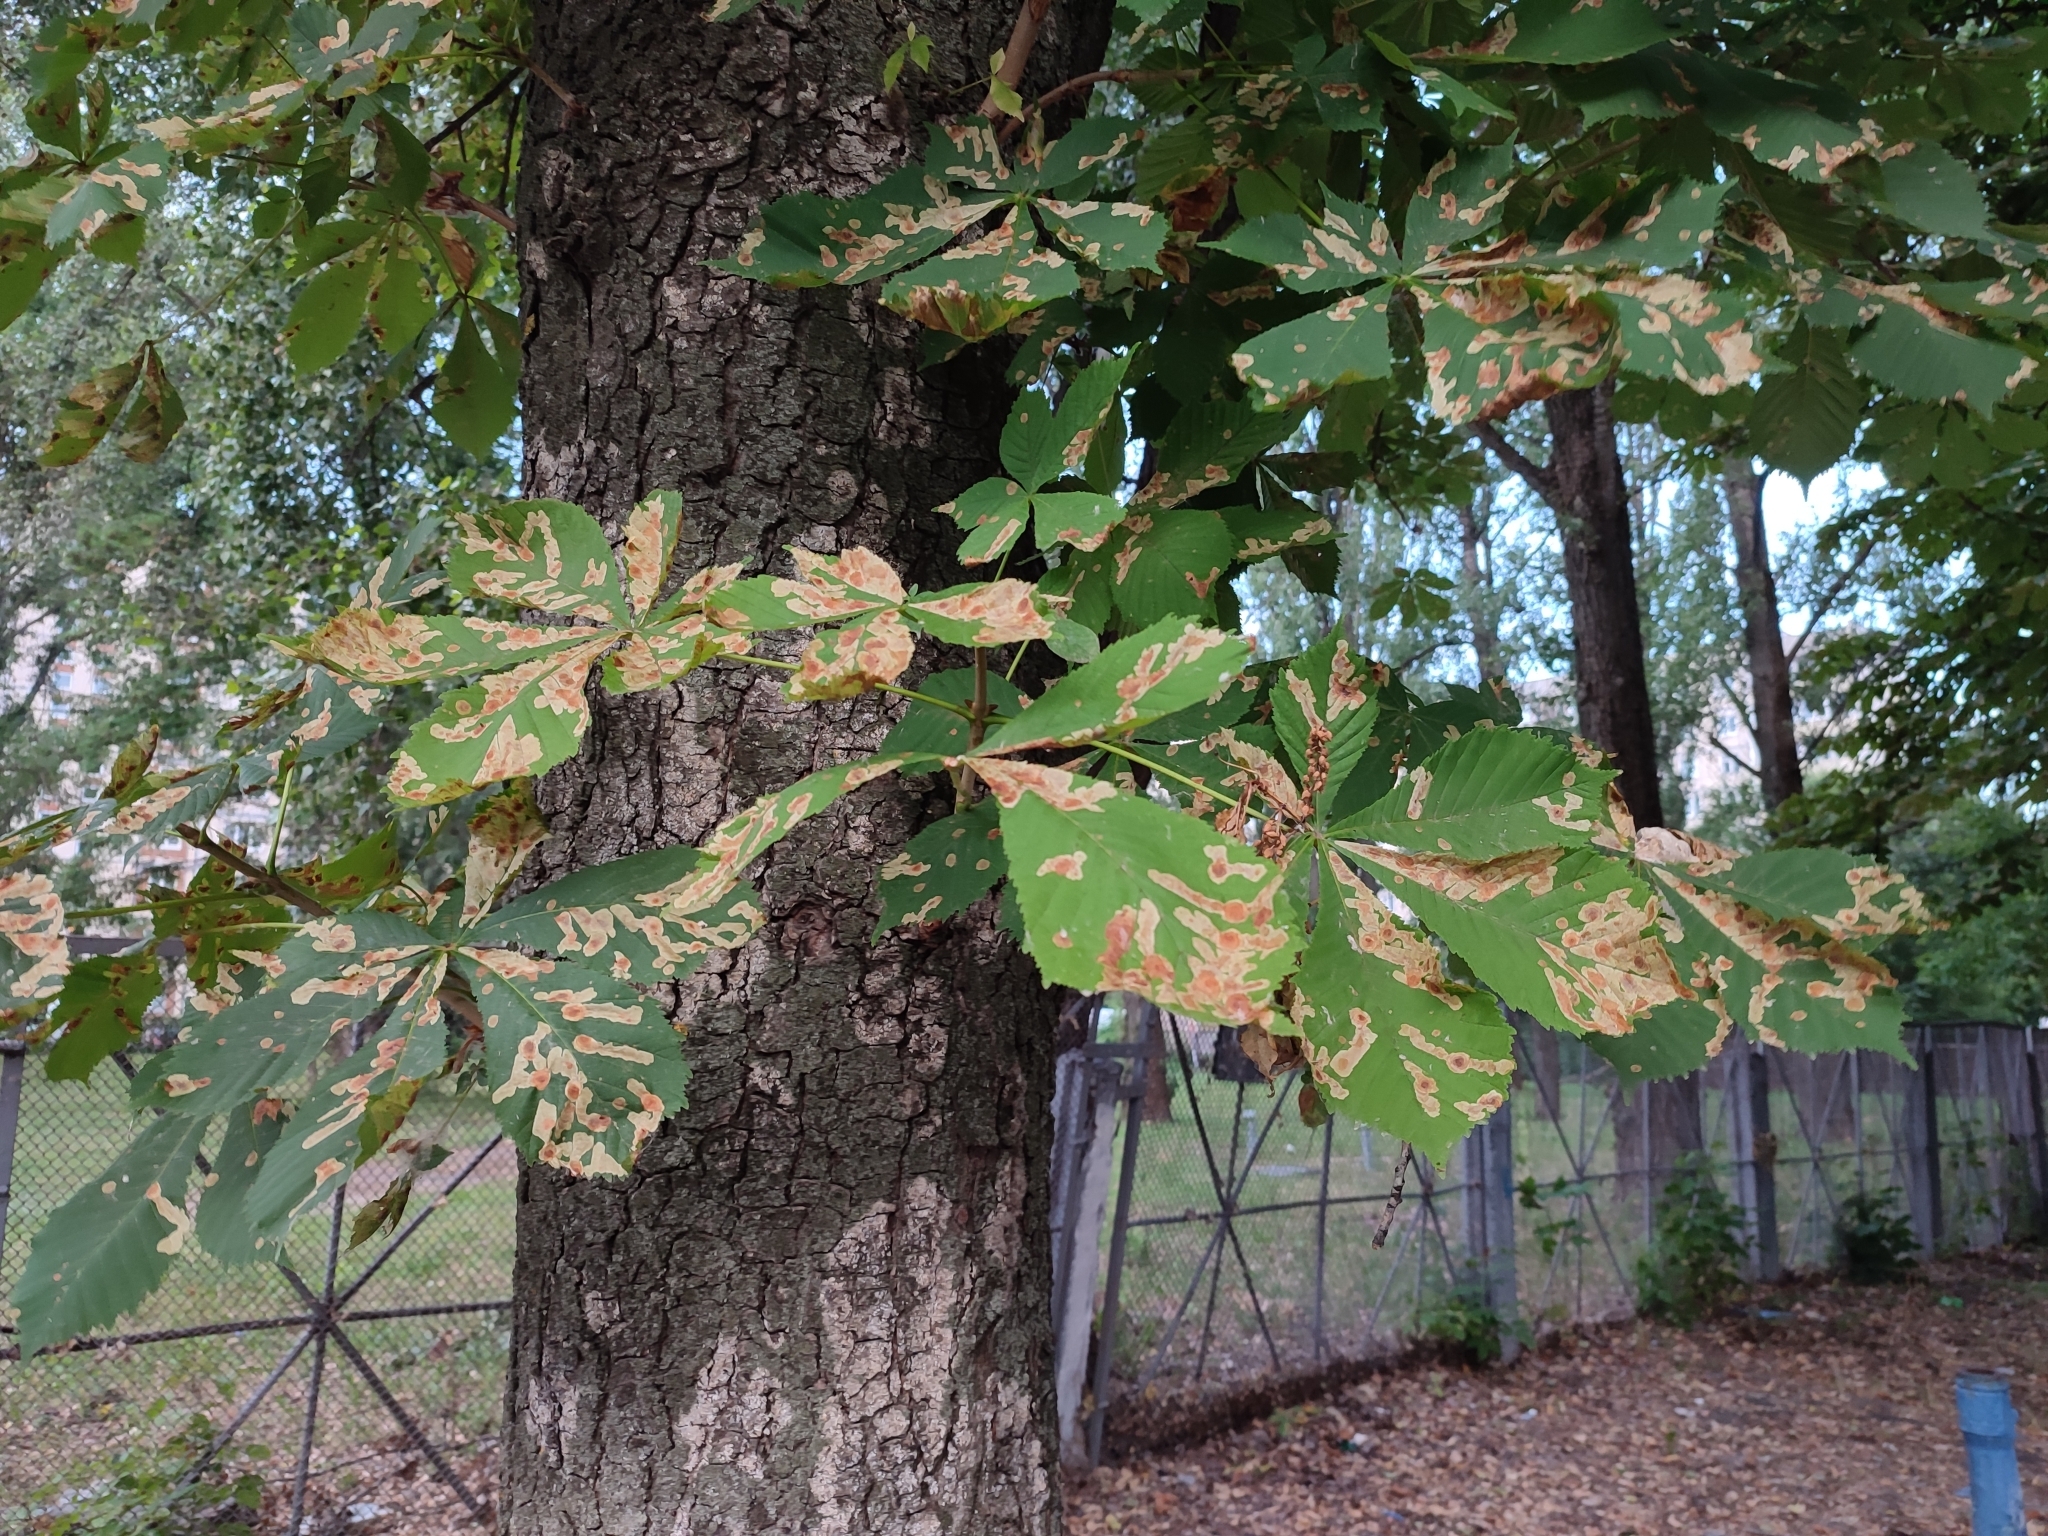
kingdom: Animalia
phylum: Arthropoda
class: Insecta
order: Lepidoptera
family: Gracillariidae
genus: Cameraria
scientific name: Cameraria ohridella
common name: Horse-chestnut leaf-miner
